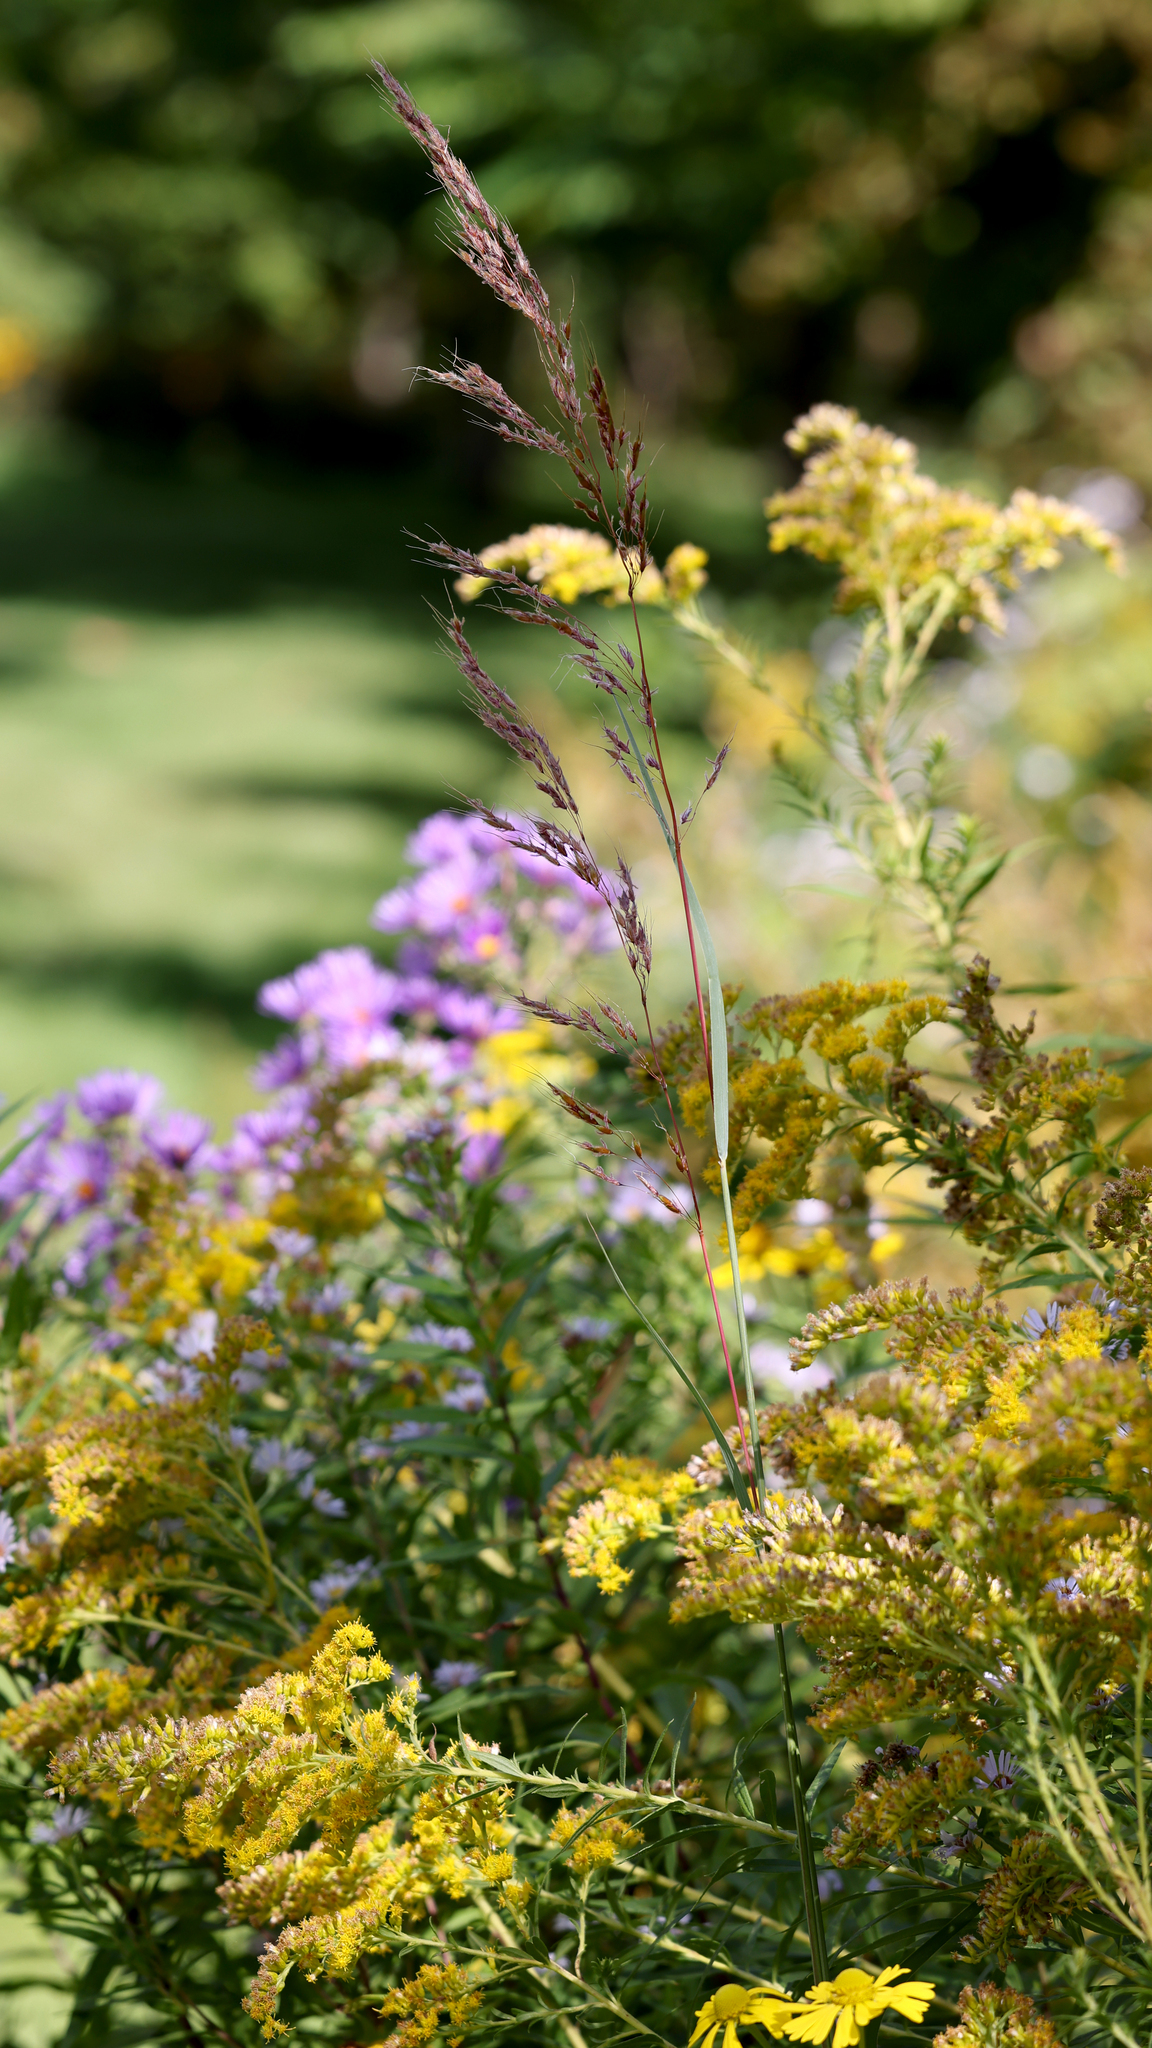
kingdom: Plantae
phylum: Tracheophyta
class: Liliopsida
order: Poales
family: Poaceae
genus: Sorghastrum
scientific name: Sorghastrum nutans
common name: Indian grass
